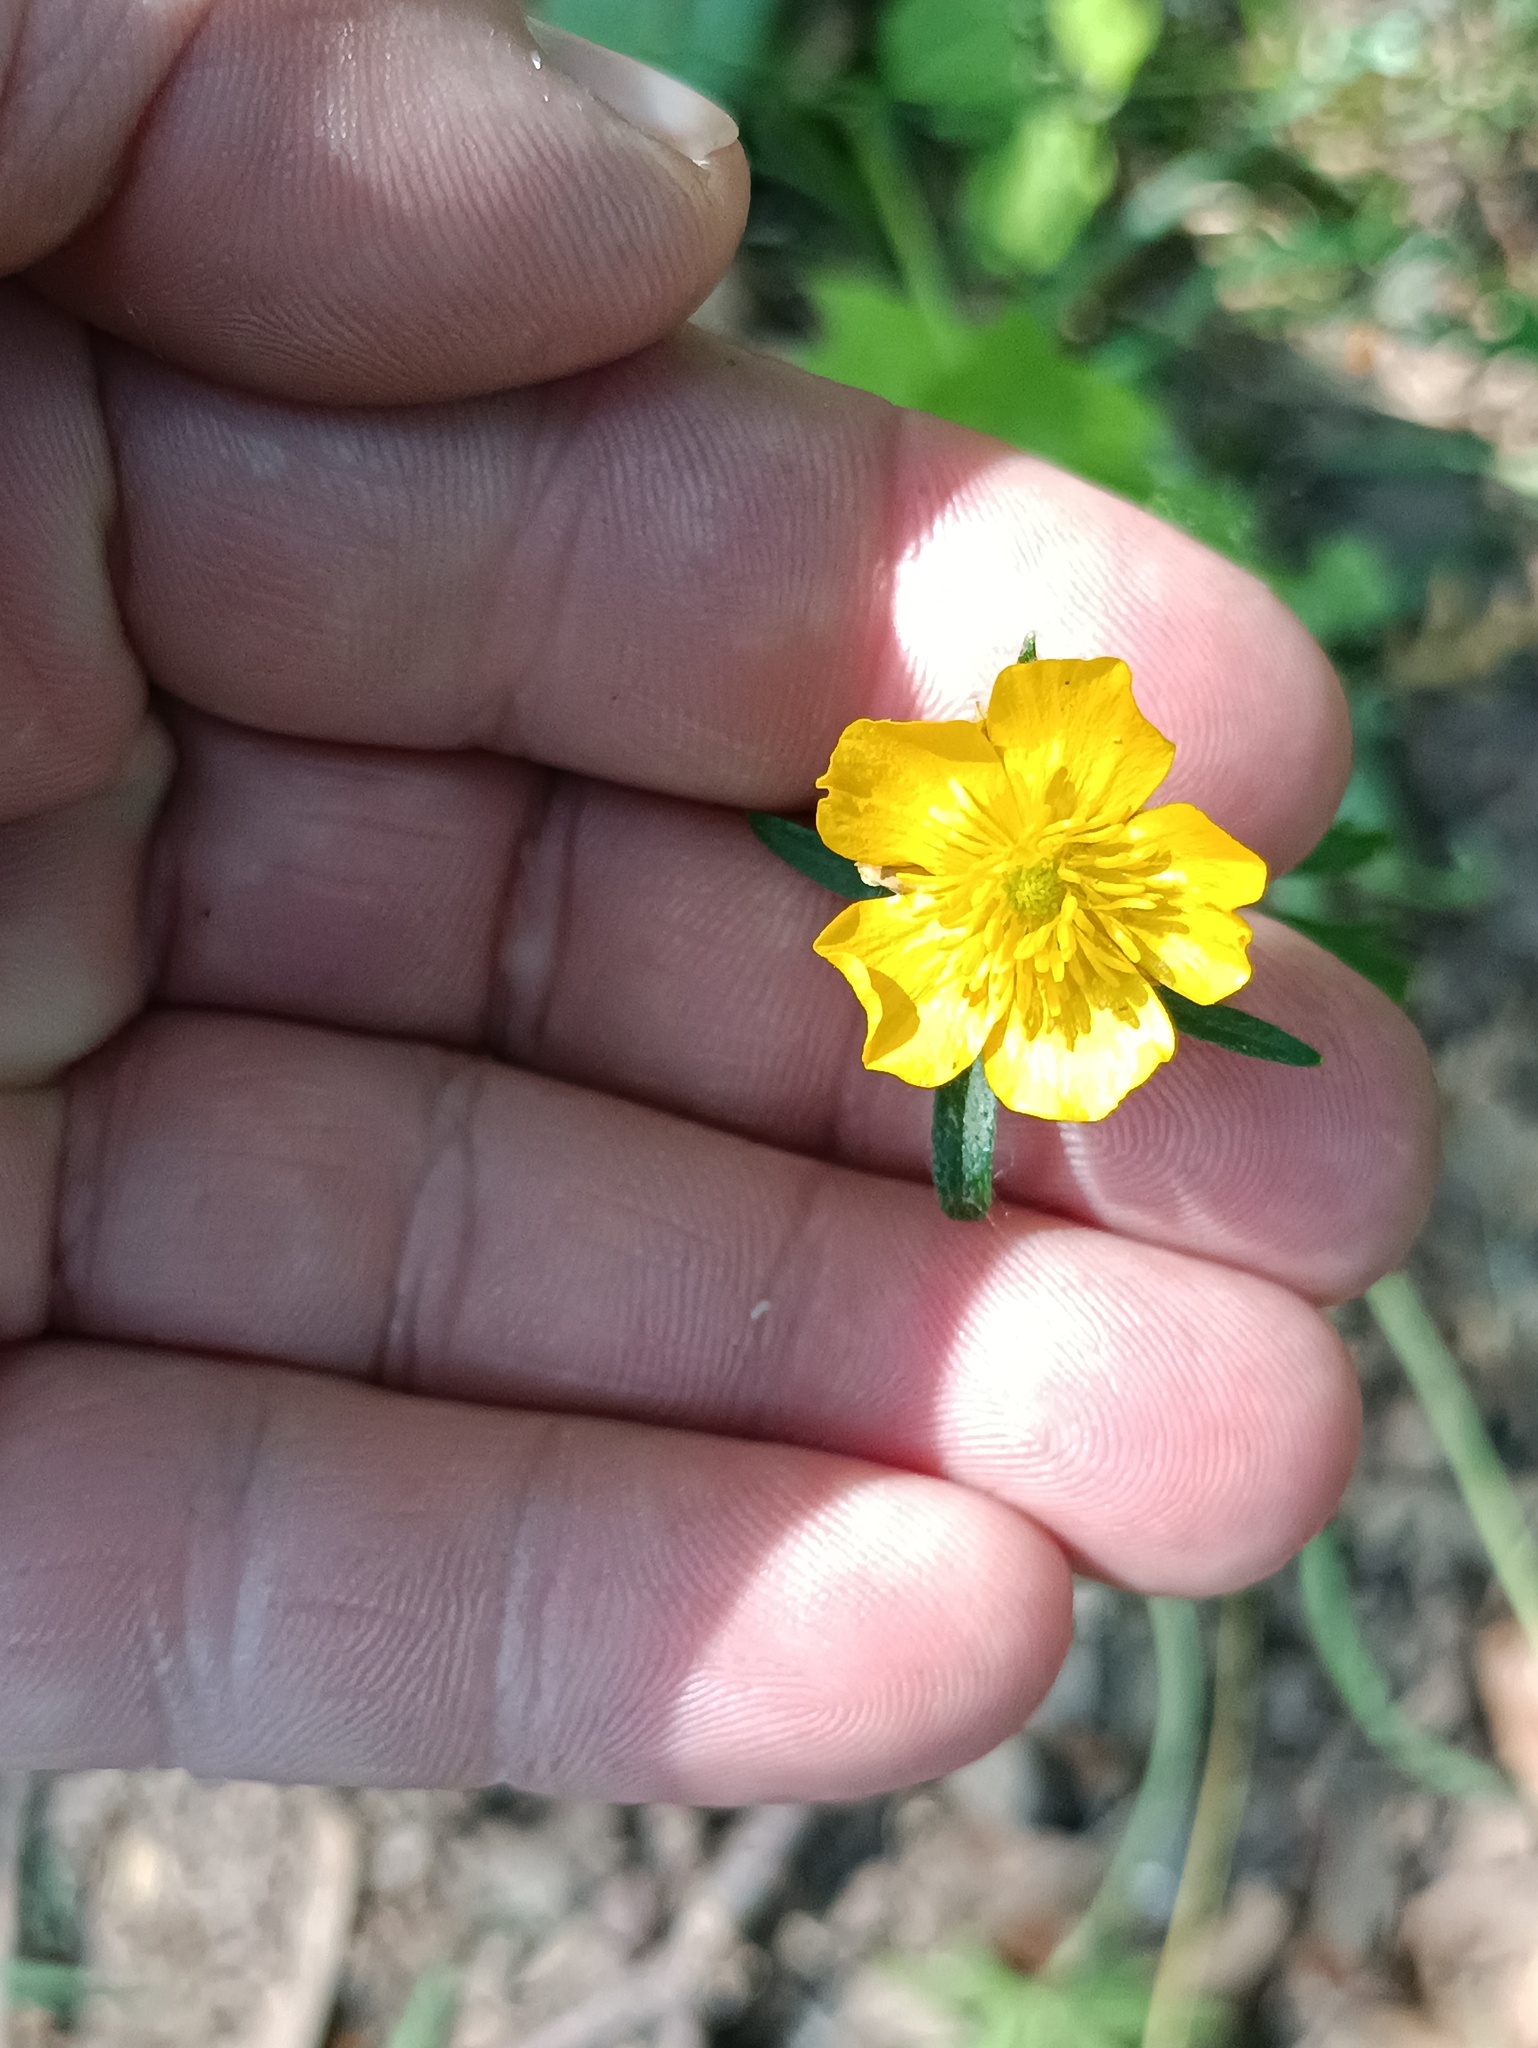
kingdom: Plantae
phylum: Tracheophyta
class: Magnoliopsida
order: Ranunculales
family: Ranunculaceae
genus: Ranunculus
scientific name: Ranunculus polyanthemos
